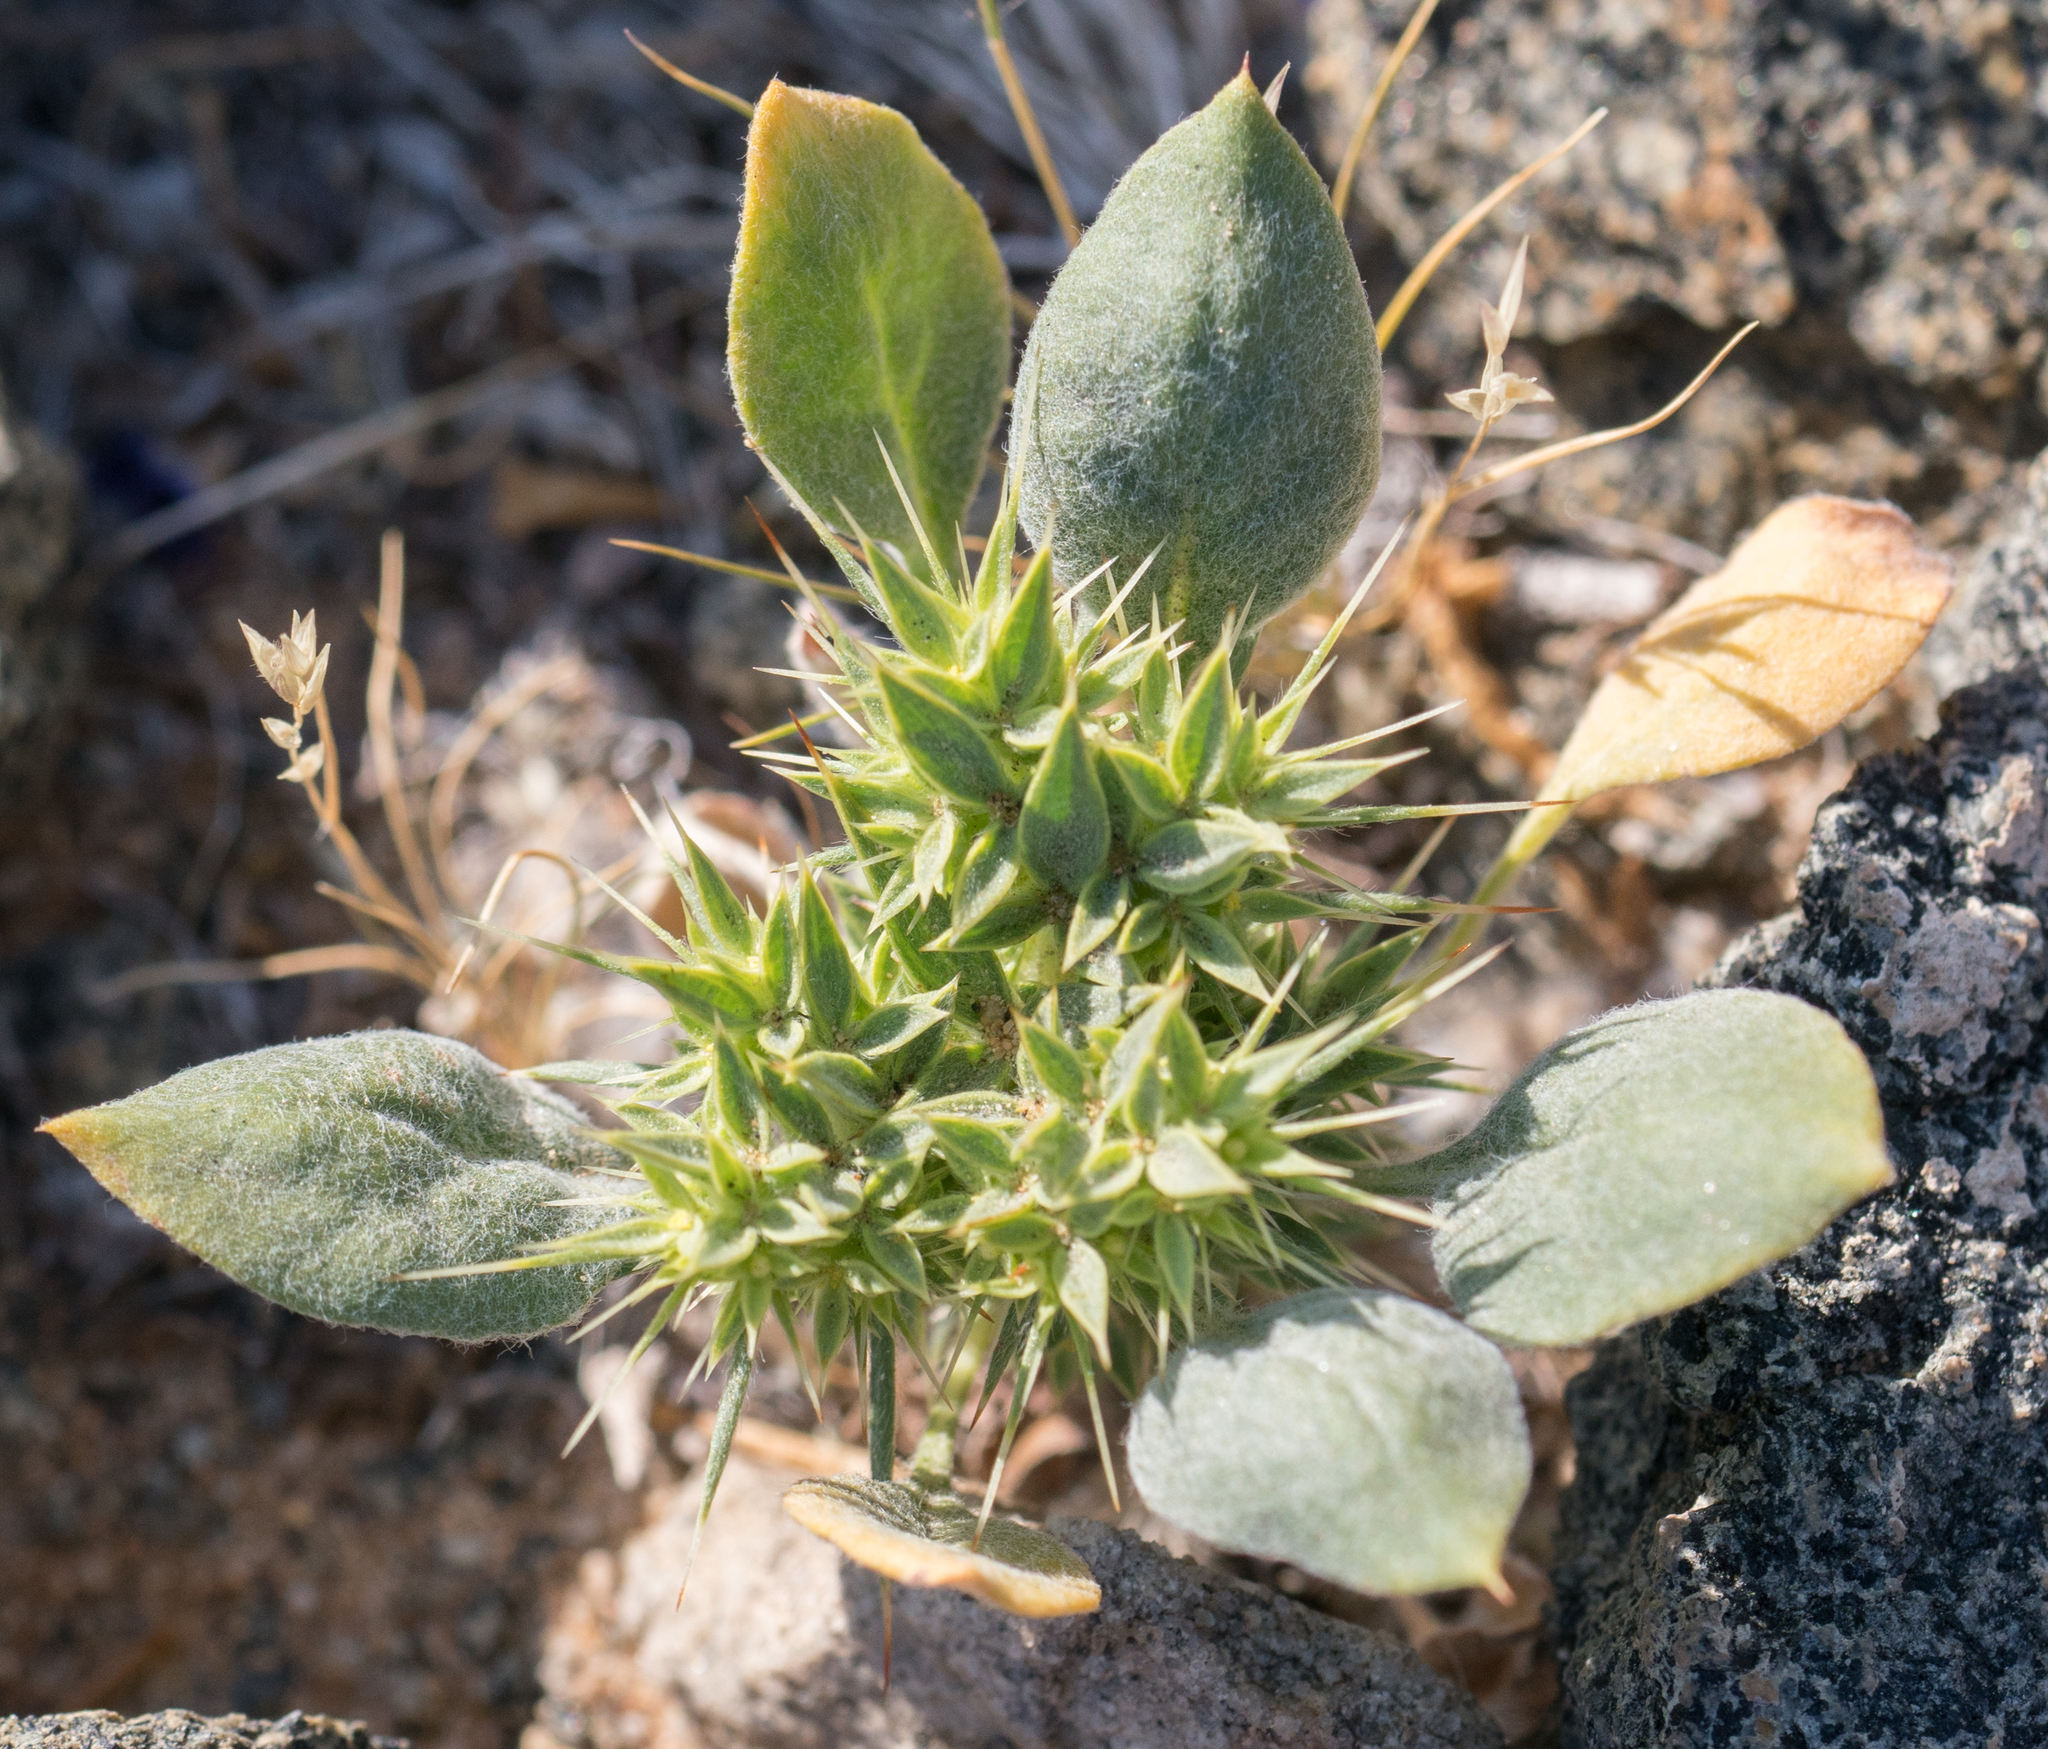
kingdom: Plantae
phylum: Tracheophyta
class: Magnoliopsida
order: Caryophyllales
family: Polygonaceae
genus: Chorizanthe
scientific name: Chorizanthe rigida
